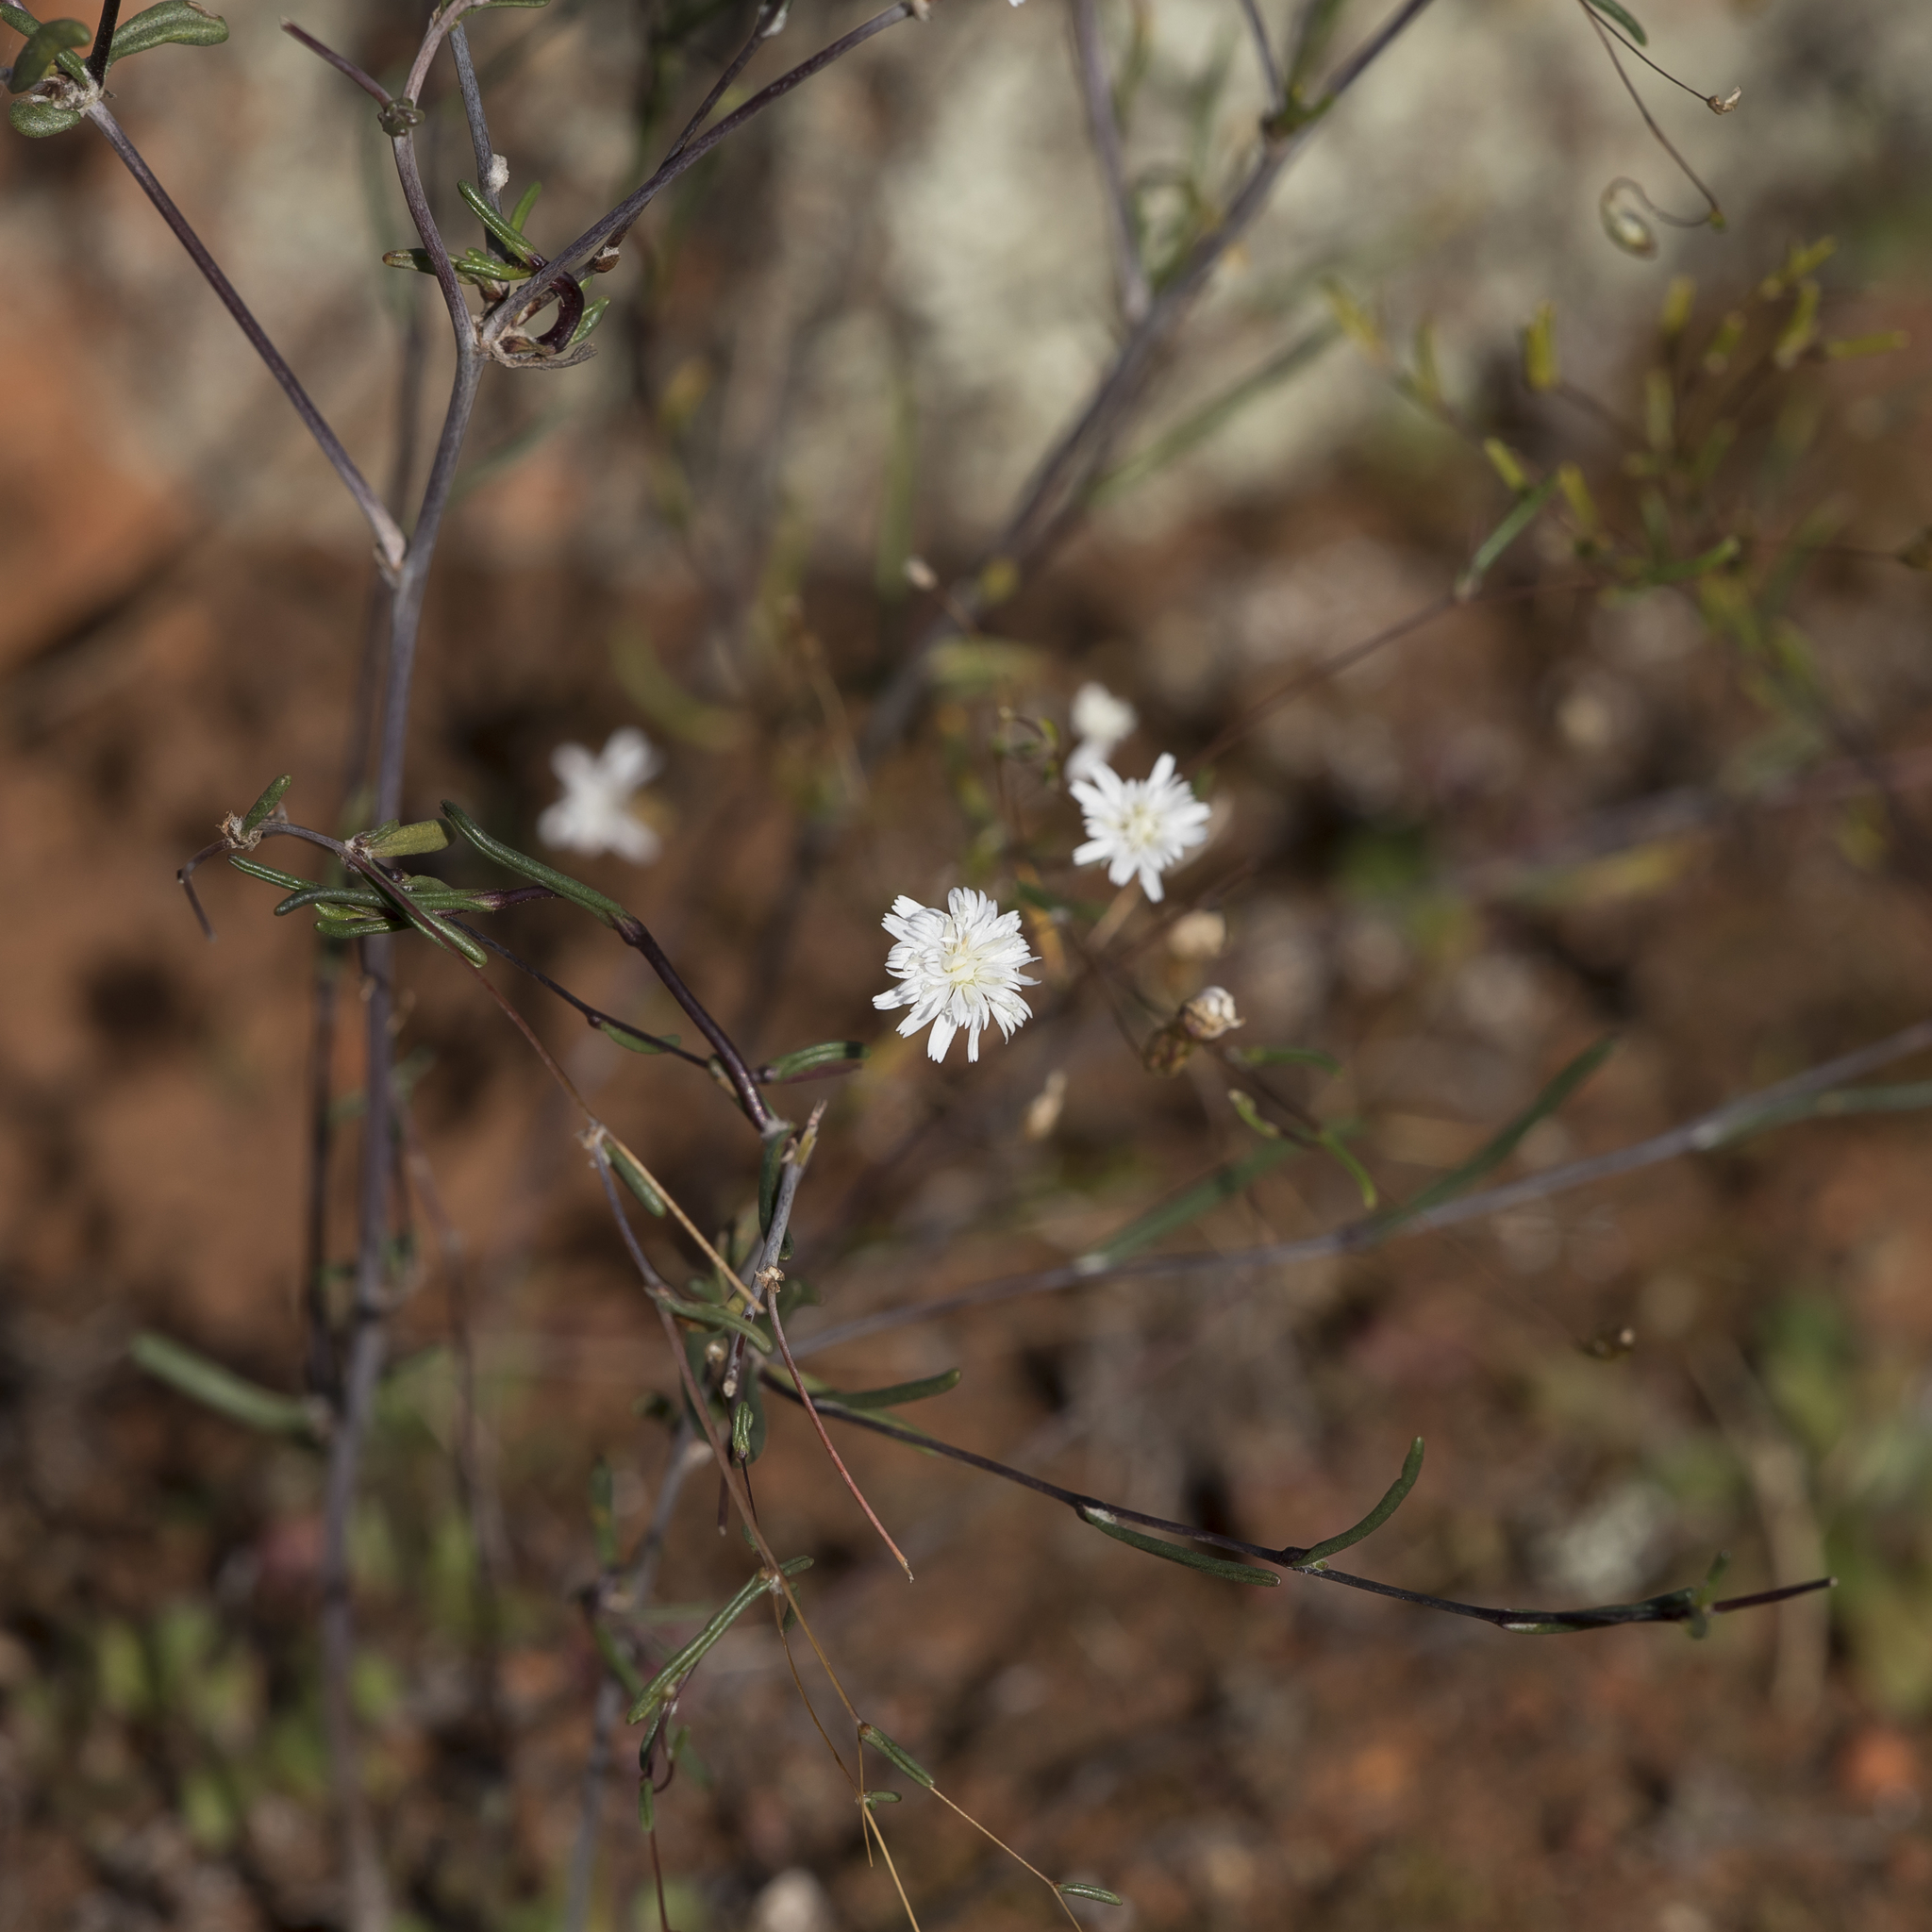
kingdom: Plantae
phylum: Tracheophyta
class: Magnoliopsida
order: Asterales
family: Asteraceae
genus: Siemssenia
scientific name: Siemssenia capillaris
